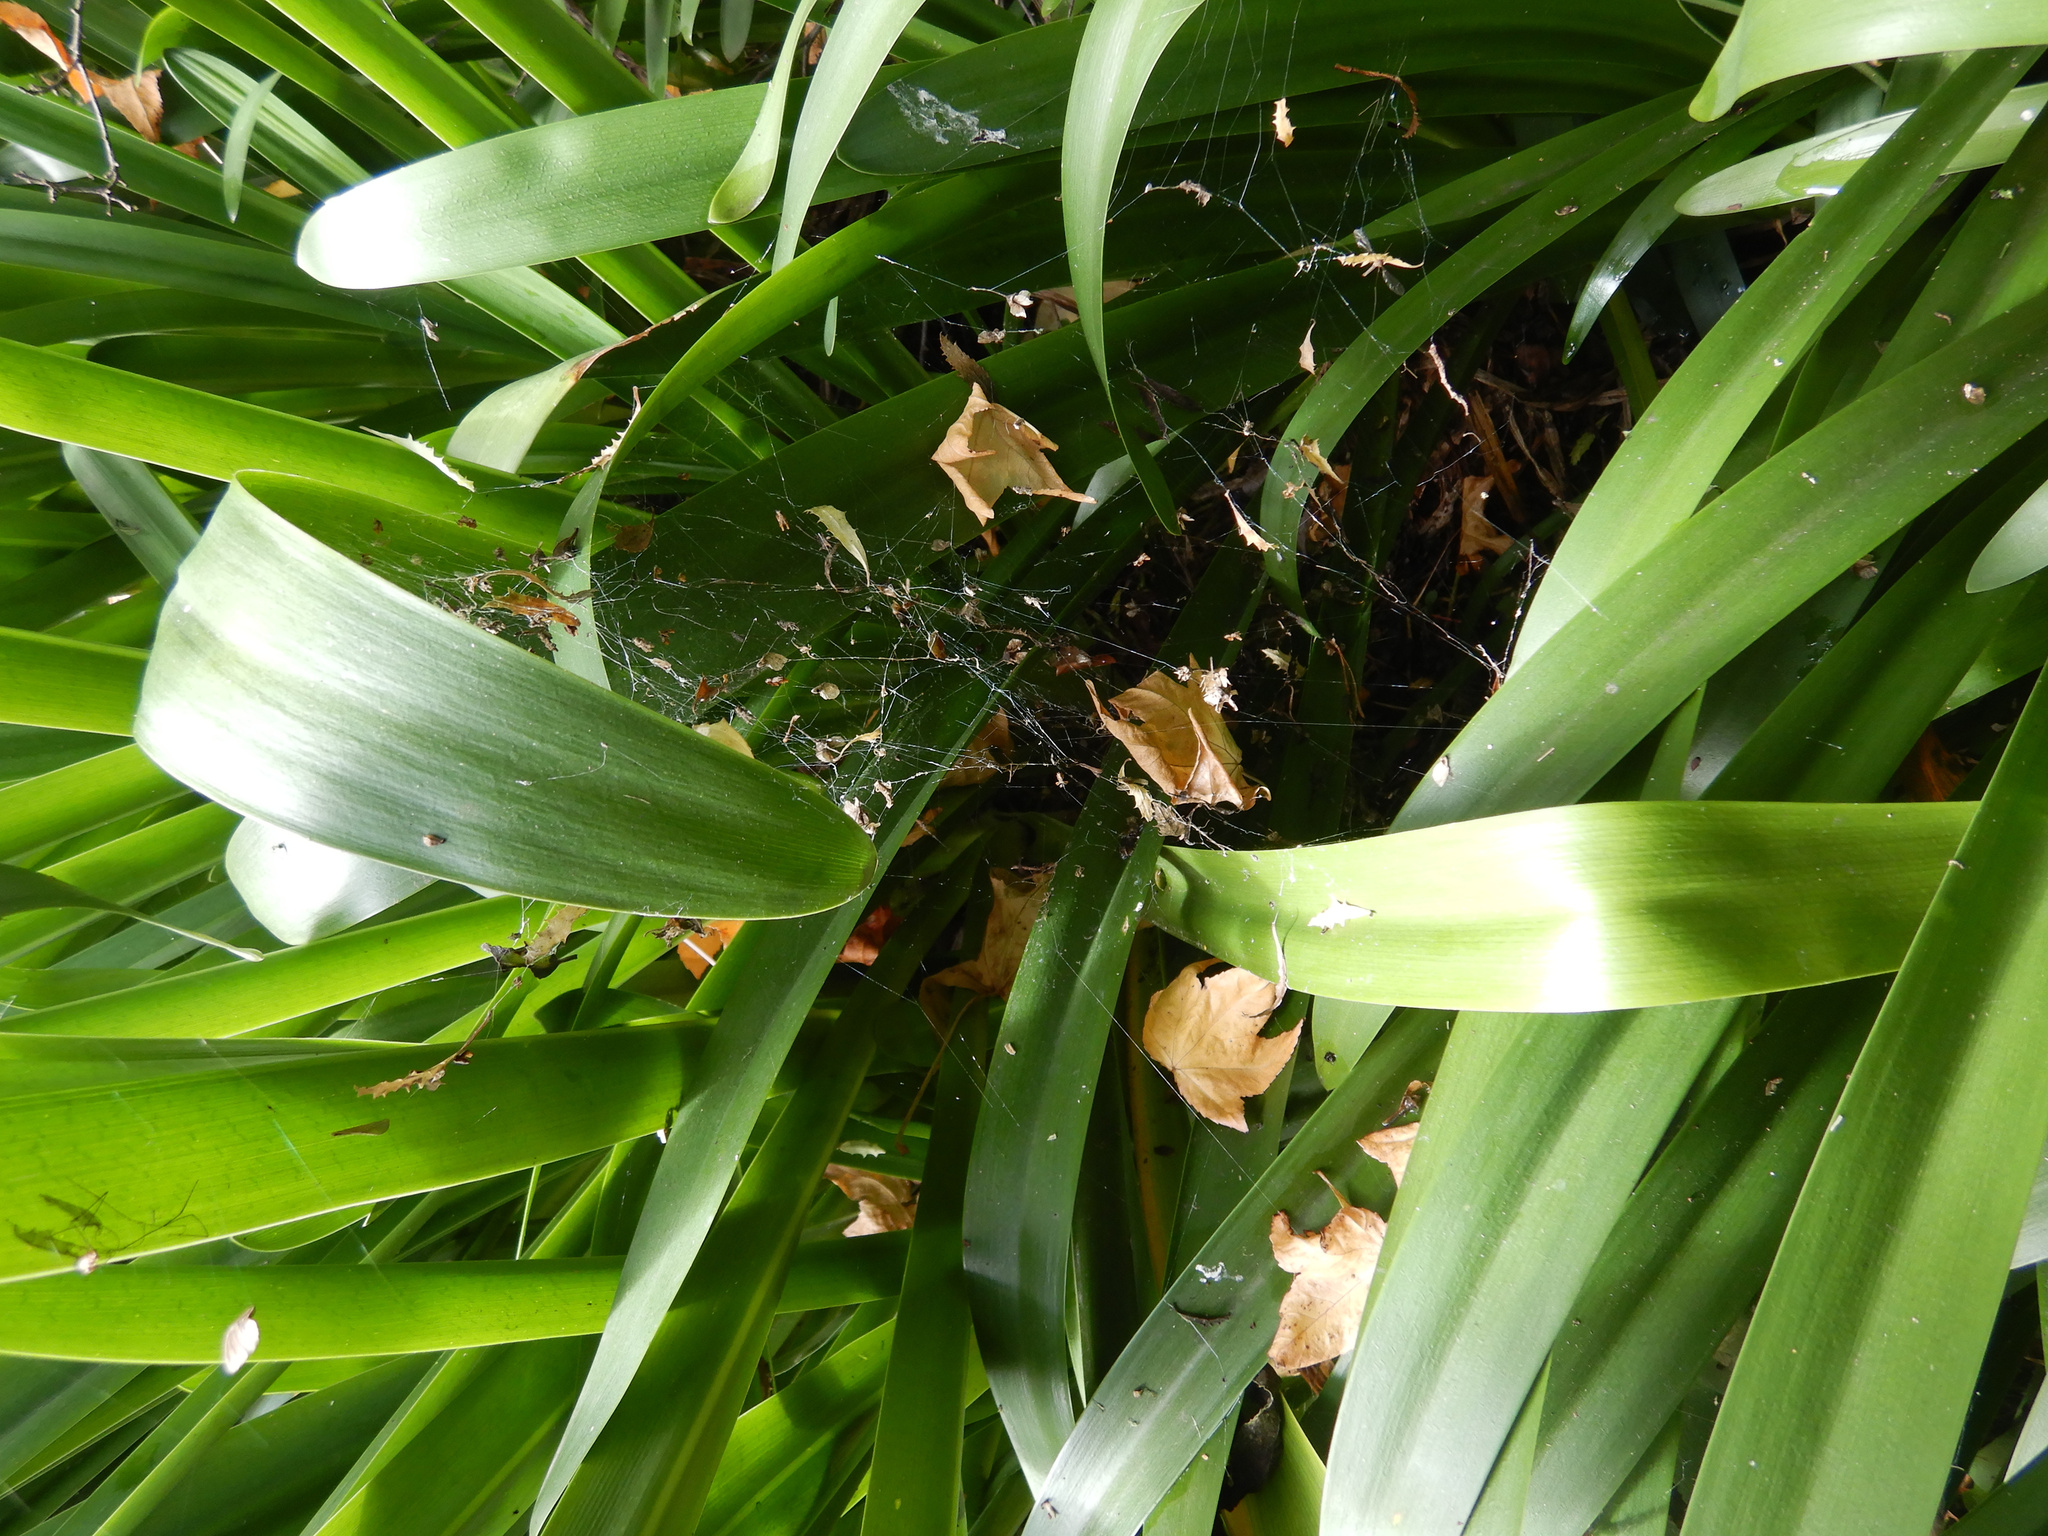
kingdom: Animalia
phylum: Arthropoda
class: Arachnida
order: Araneae
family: Uloboridae
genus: Philoponella
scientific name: Philoponella congregabilis
